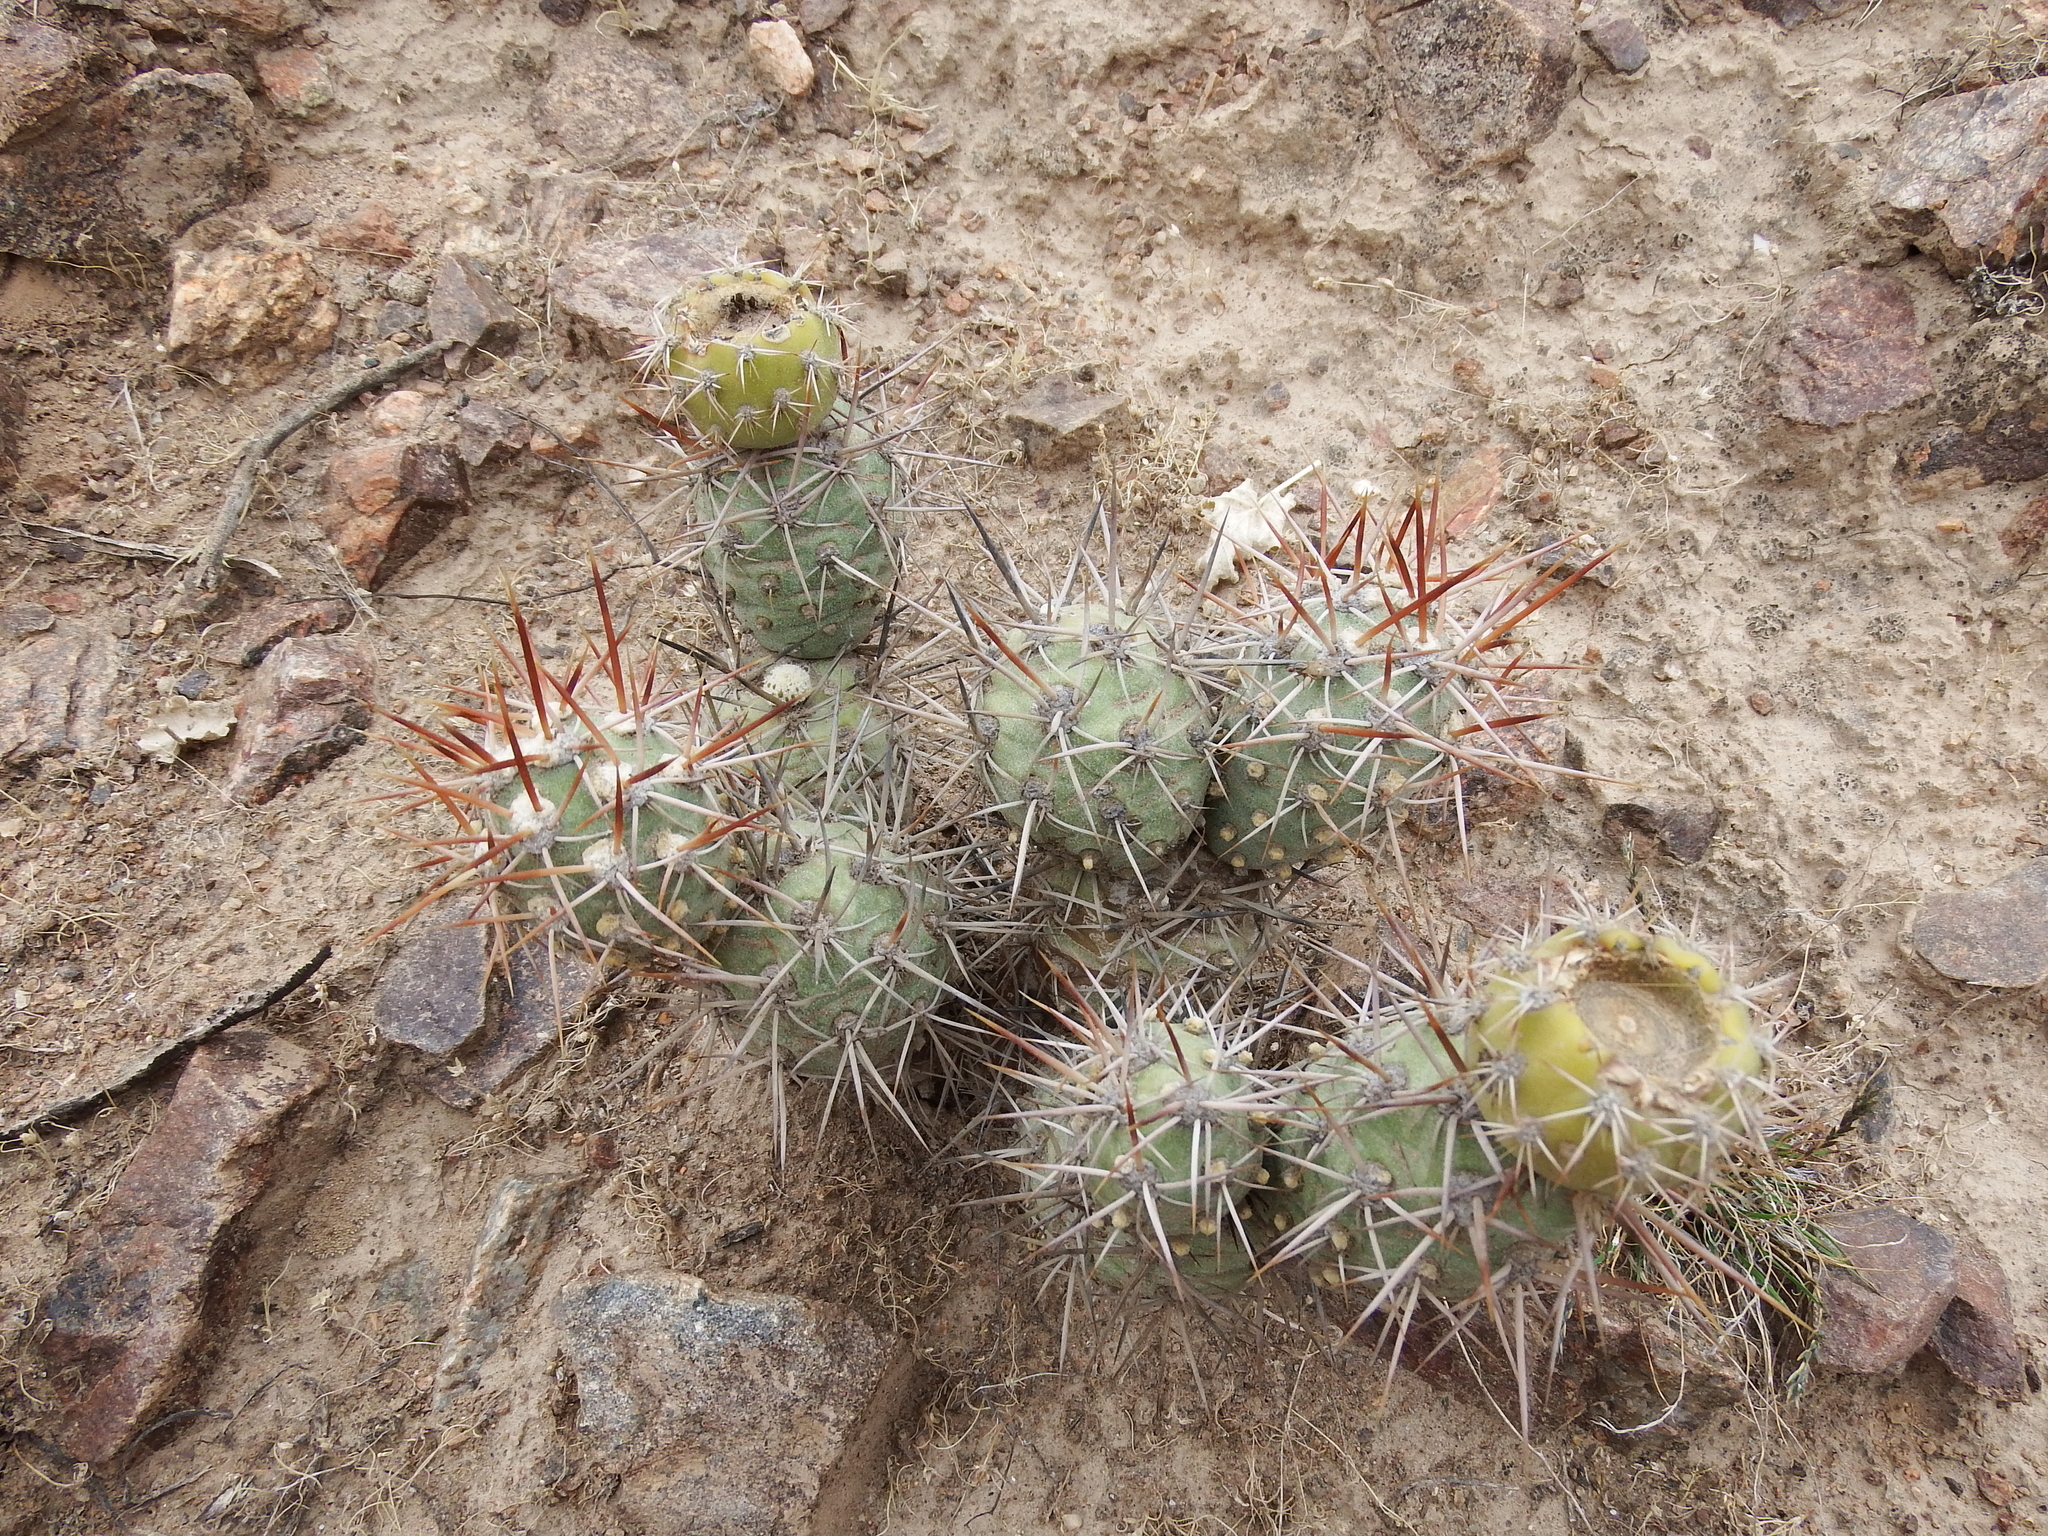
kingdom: Plantae
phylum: Tracheophyta
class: Magnoliopsida
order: Caryophyllales
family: Cactaceae
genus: Cumulopuntia
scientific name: Cumulopuntia leucophaea
